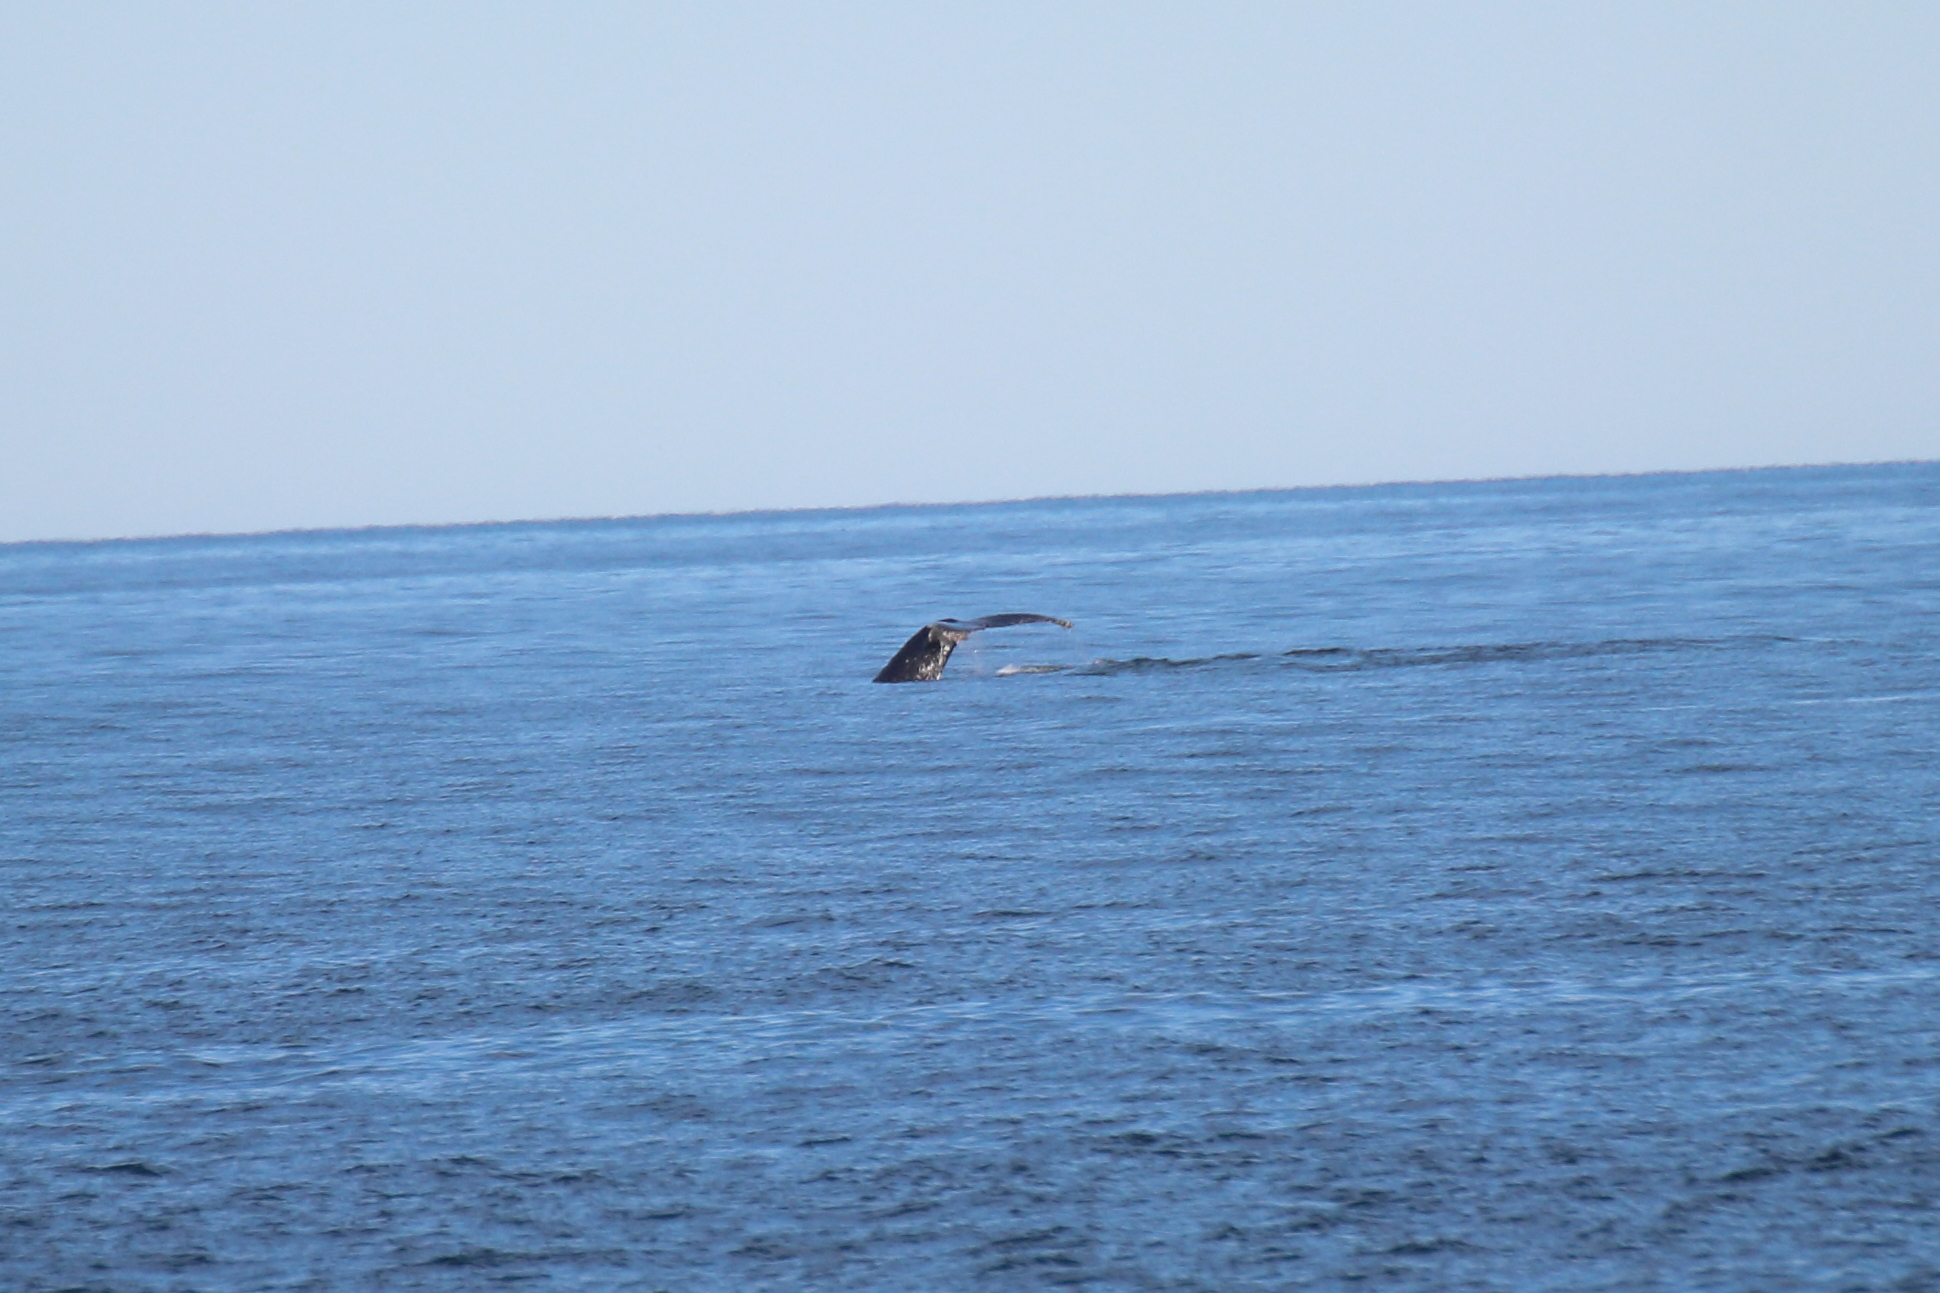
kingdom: Animalia
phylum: Chordata
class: Mammalia
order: Cetacea
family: Balaenopteridae
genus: Megaptera
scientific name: Megaptera novaeangliae
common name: Humpback whale
